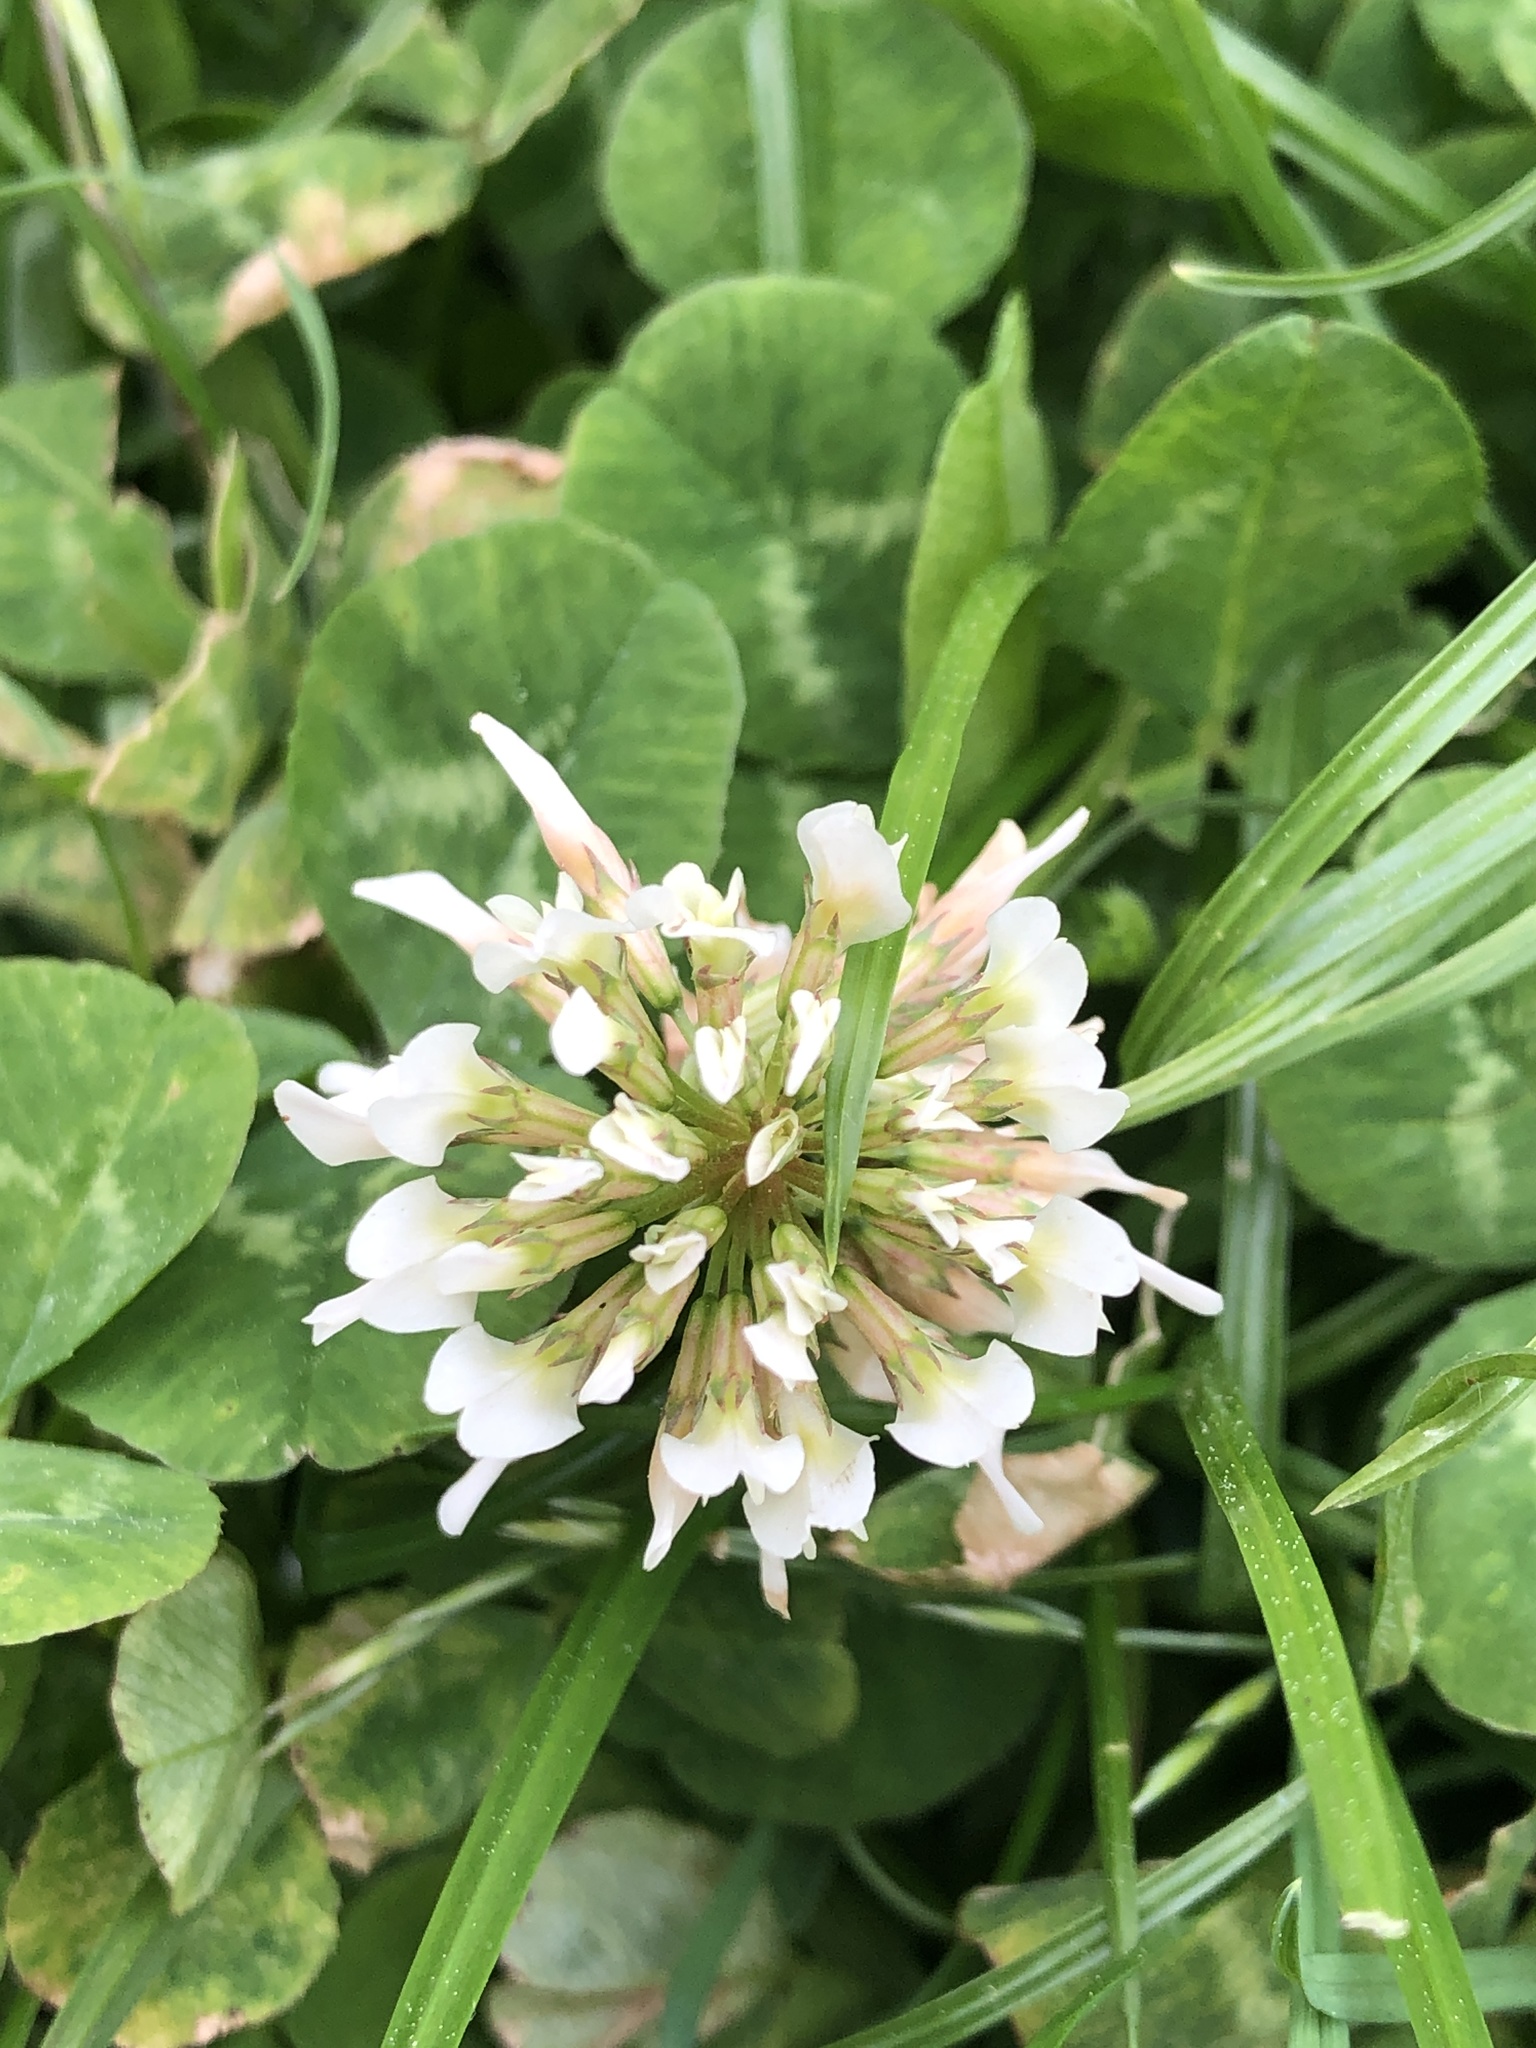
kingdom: Plantae
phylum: Tracheophyta
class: Magnoliopsida
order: Fabales
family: Fabaceae
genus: Trifolium
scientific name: Trifolium repens
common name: White clover
